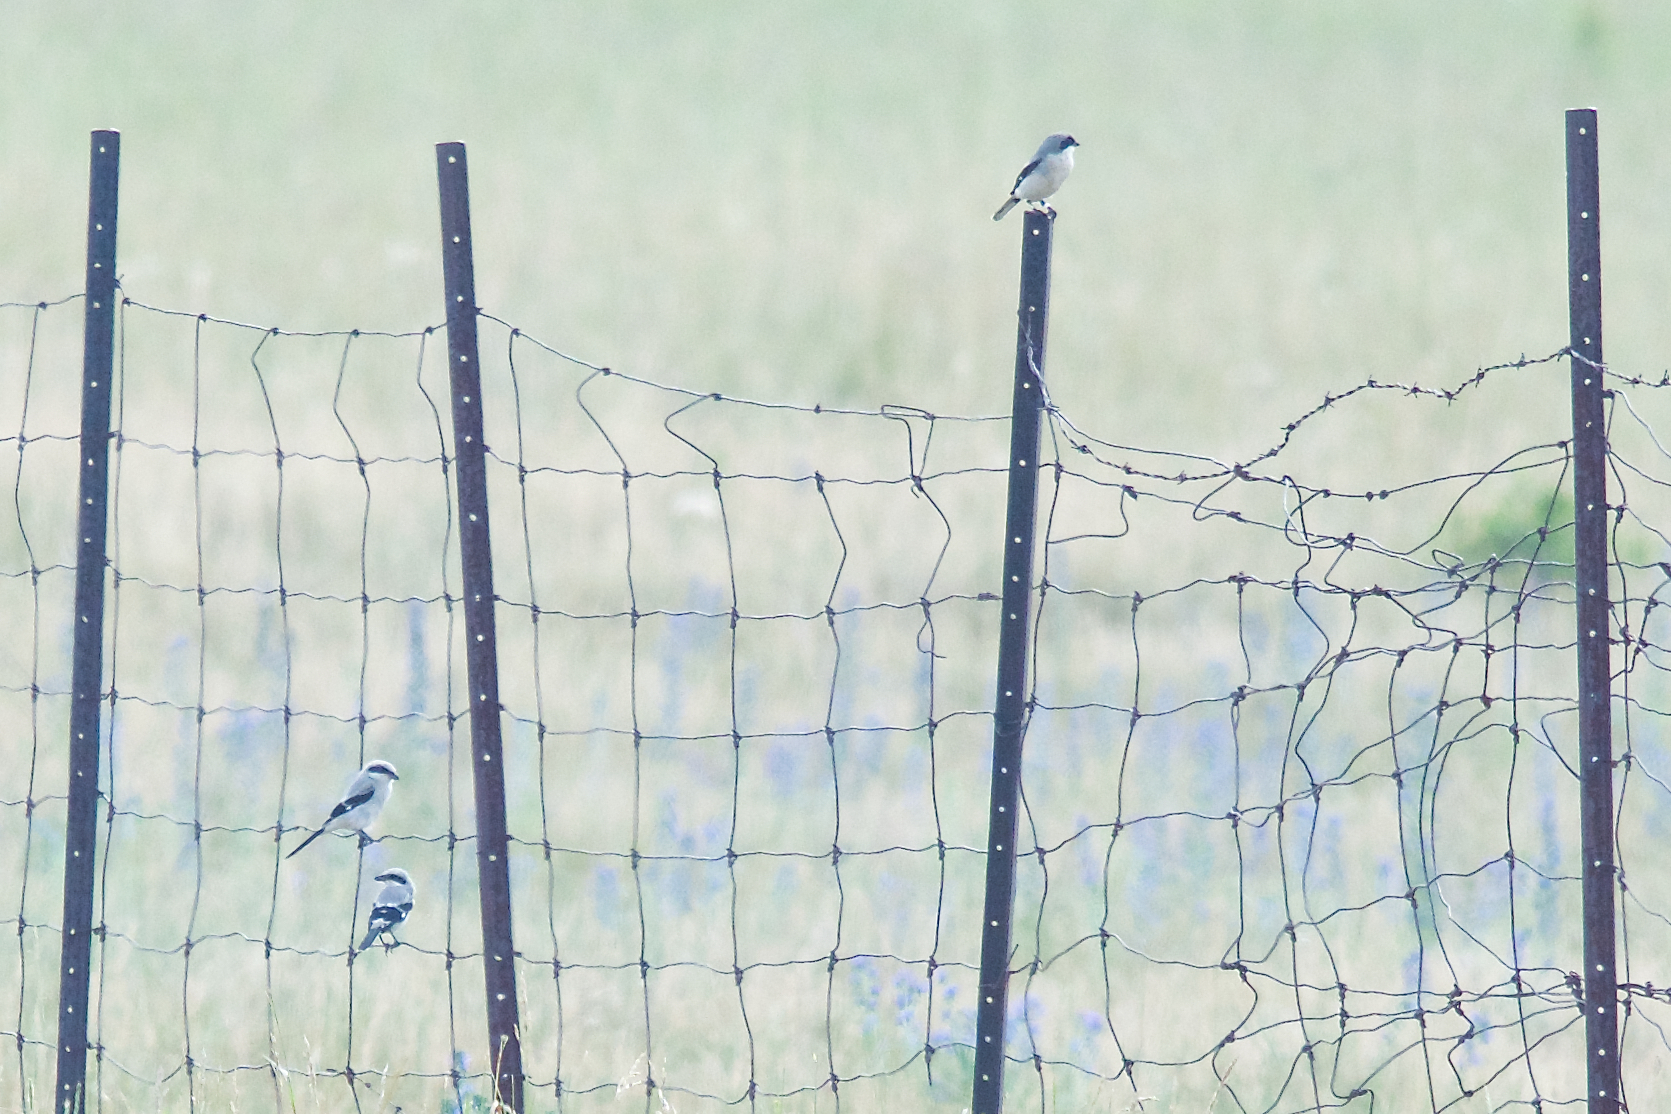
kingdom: Animalia
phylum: Chordata
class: Aves
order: Passeriformes
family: Laniidae
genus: Lanius
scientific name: Lanius ludovicianus
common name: Loggerhead shrike
